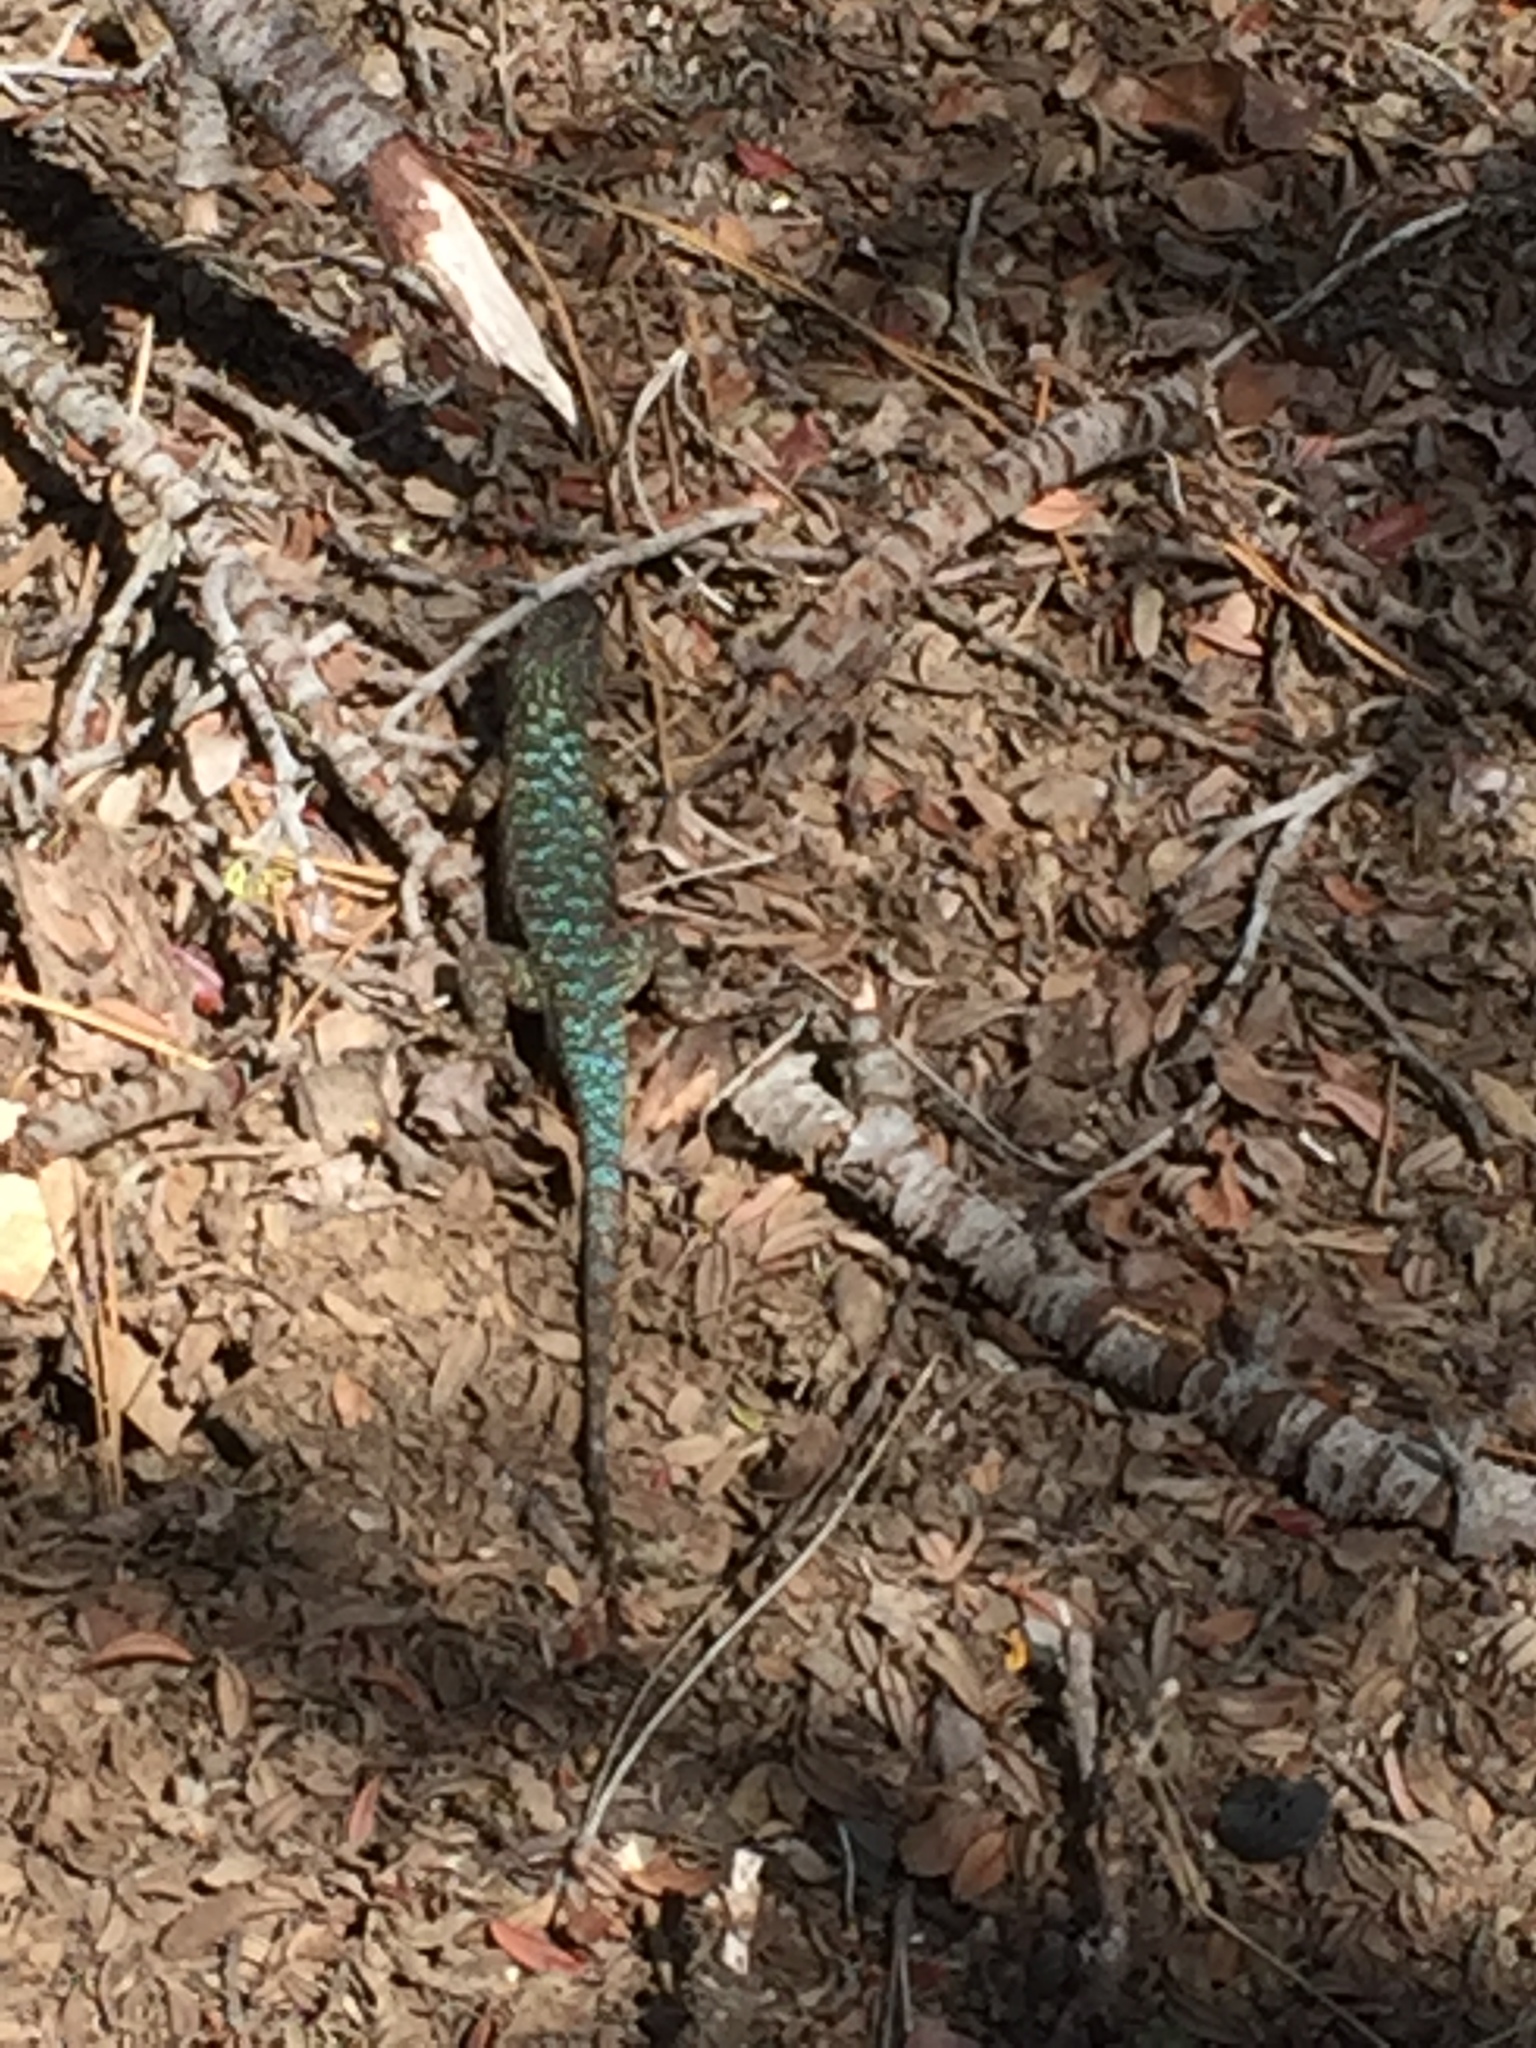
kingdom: Animalia
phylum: Chordata
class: Squamata
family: Phrynosomatidae
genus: Sceloporus
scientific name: Sceloporus occidentalis
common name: Western fence lizard
